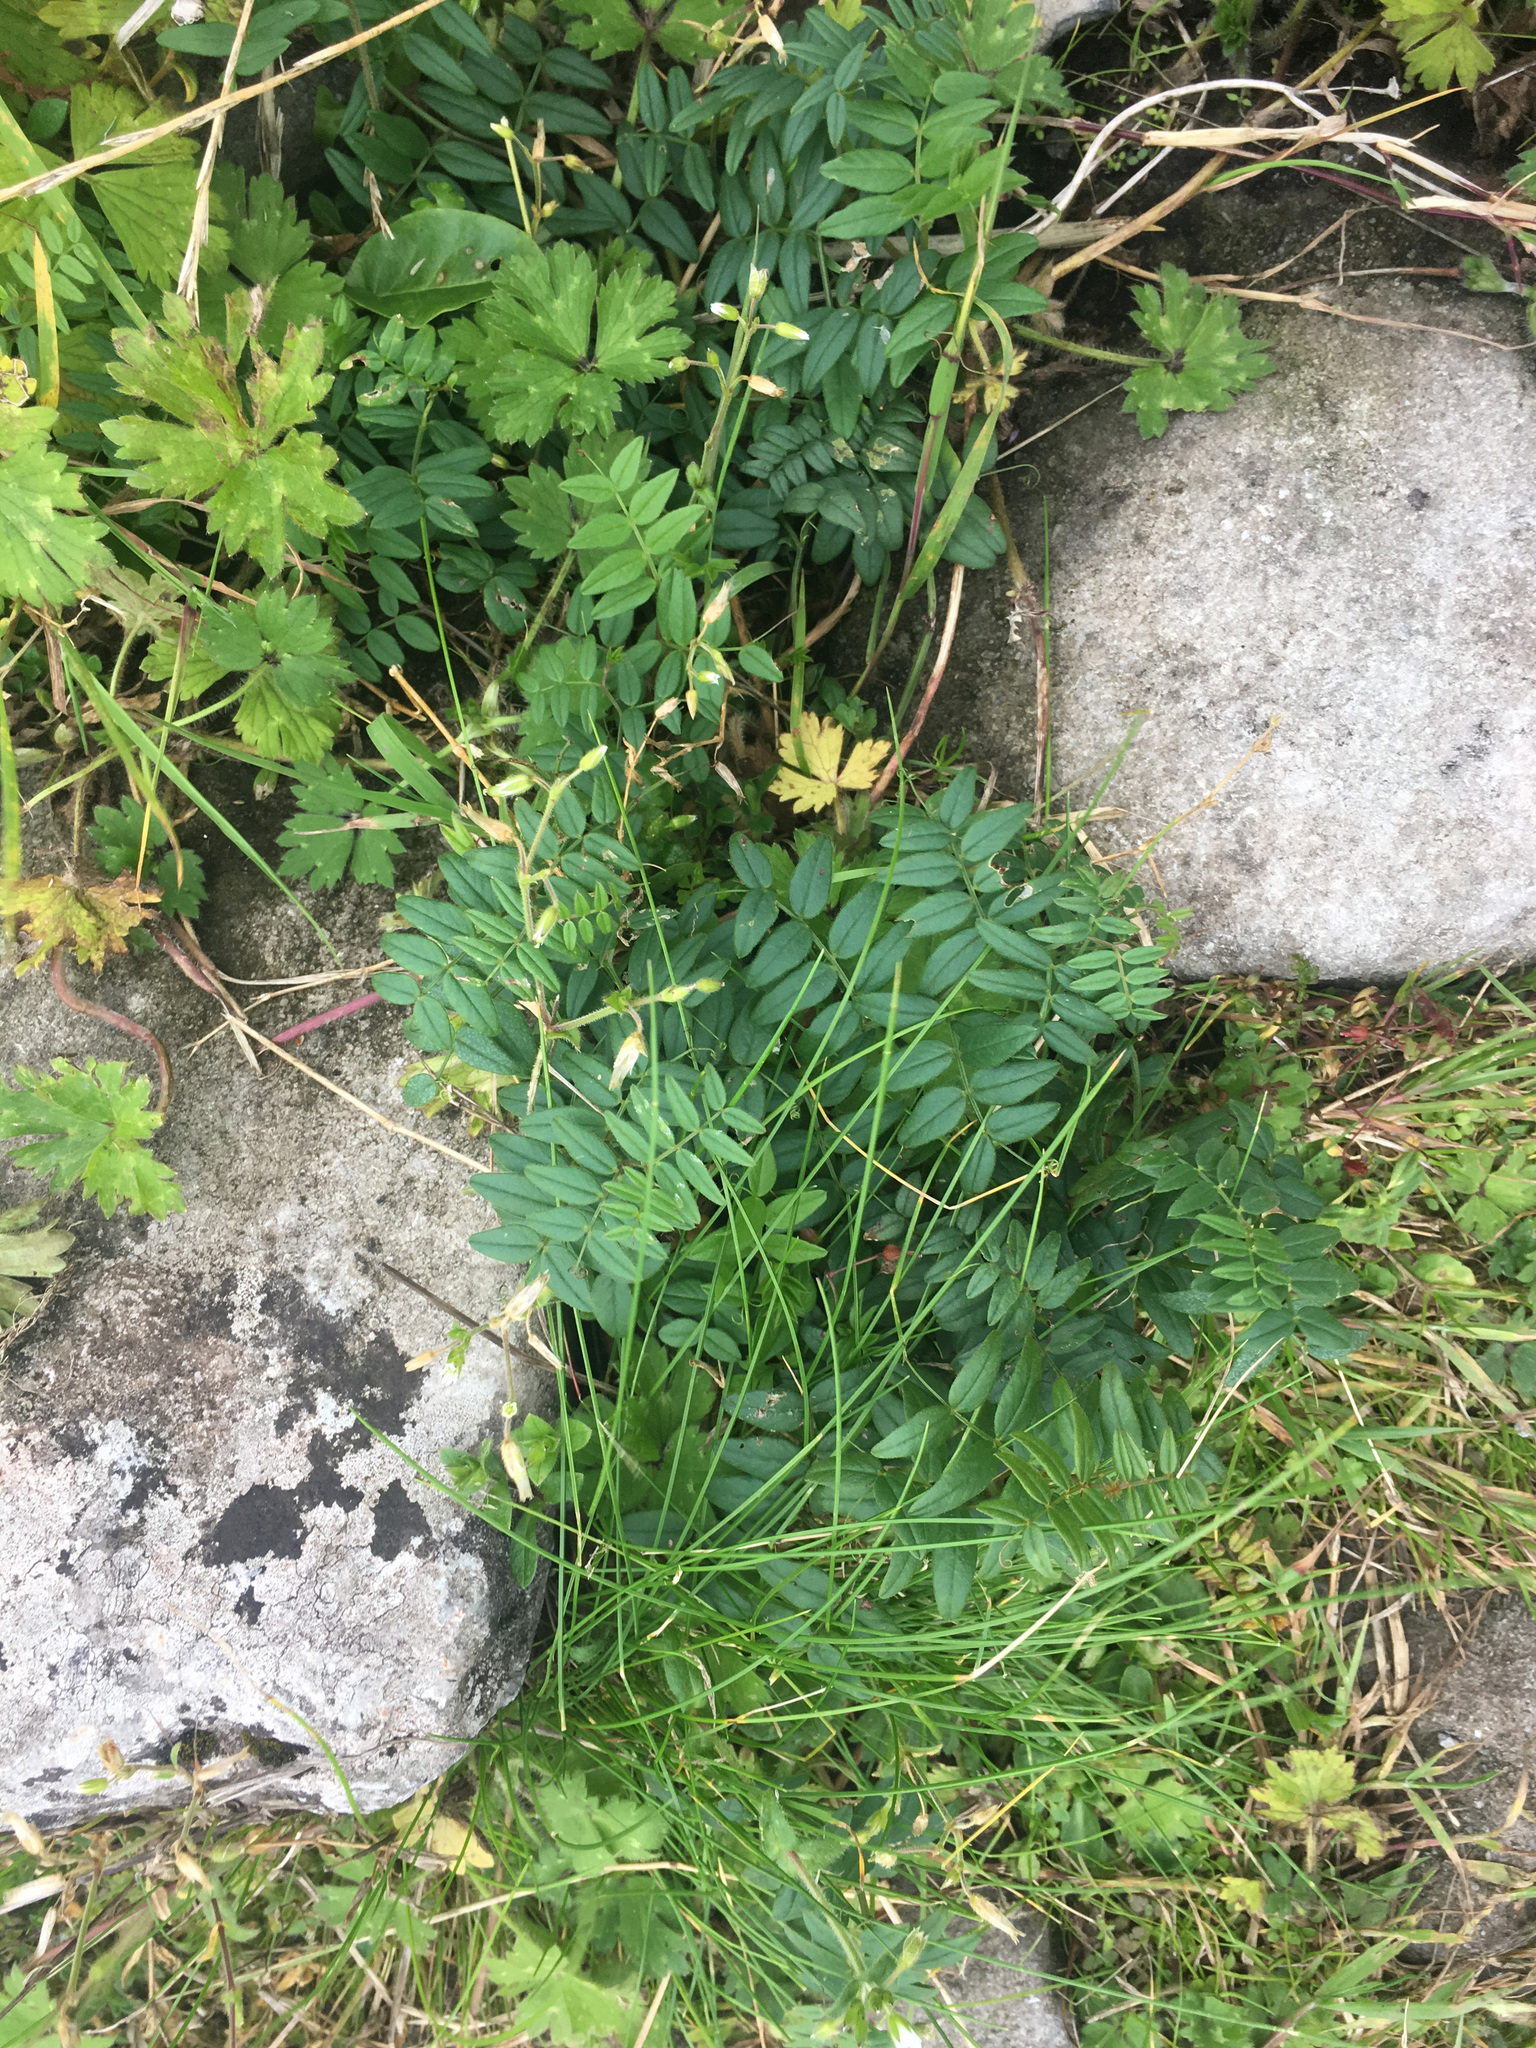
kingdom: Plantae
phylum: Tracheophyta
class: Magnoliopsida
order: Ranunculales
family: Ranunculaceae
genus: Ranunculus
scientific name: Ranunculus repens
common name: Creeping buttercup
